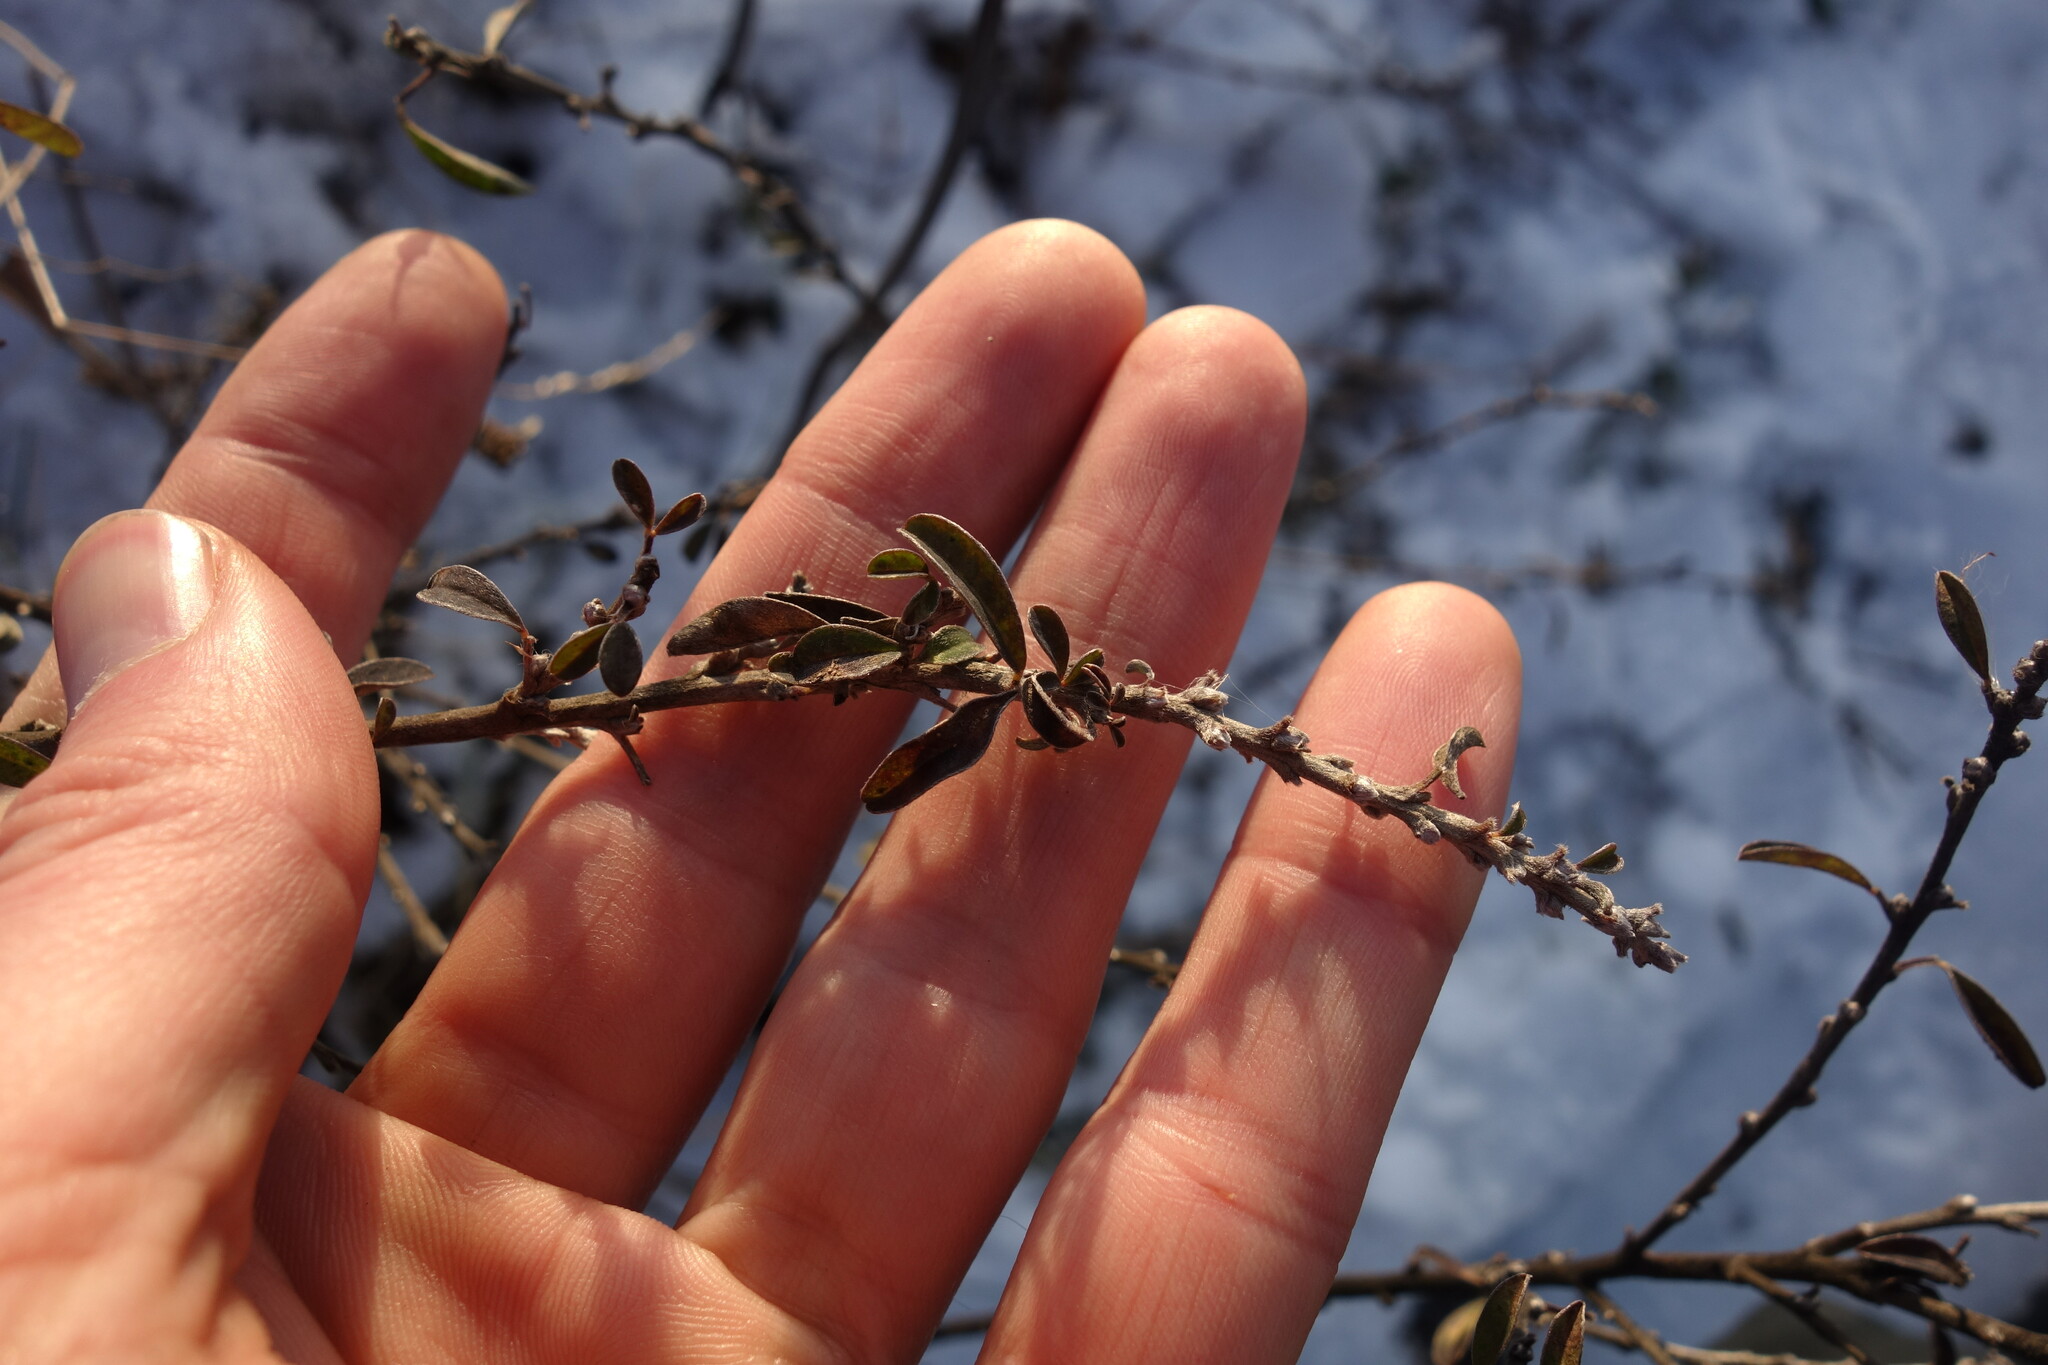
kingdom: Plantae
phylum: Tracheophyta
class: Magnoliopsida
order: Fabales
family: Fabaceae
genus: Chamaecytisus
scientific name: Chamaecytisus ruthenicus
